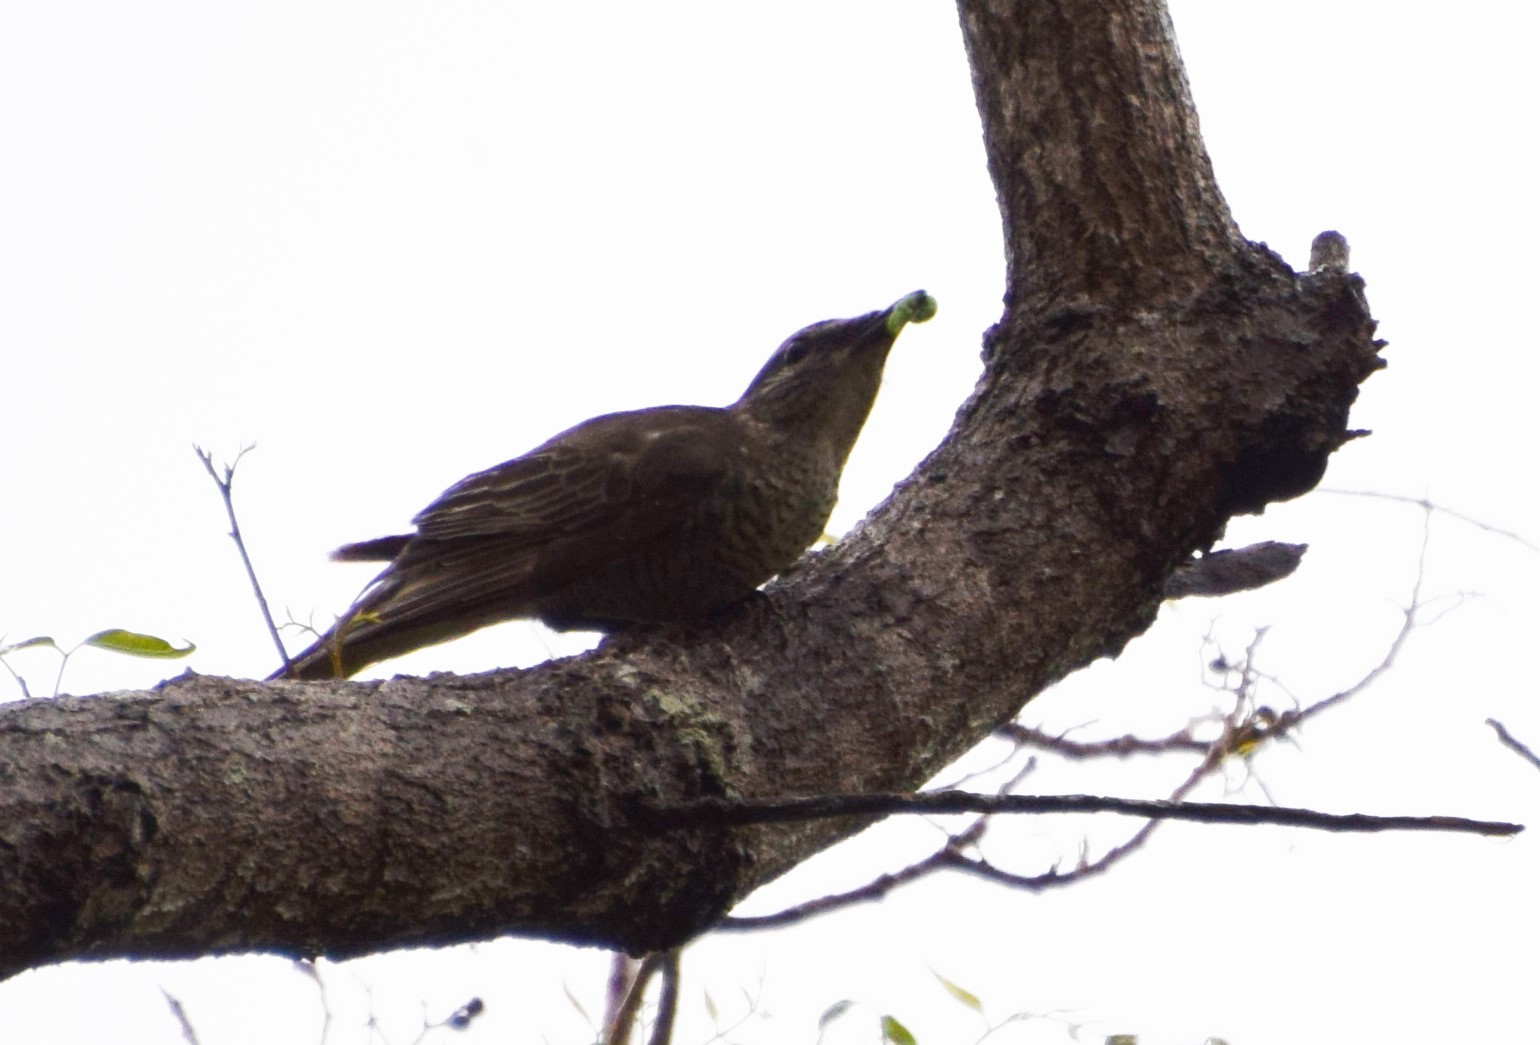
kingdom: Animalia
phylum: Chordata
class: Aves
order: Passeriformes
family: Campephagidae
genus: Edolisoma
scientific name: Edolisoma tenuirostre
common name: Common cicadabird
